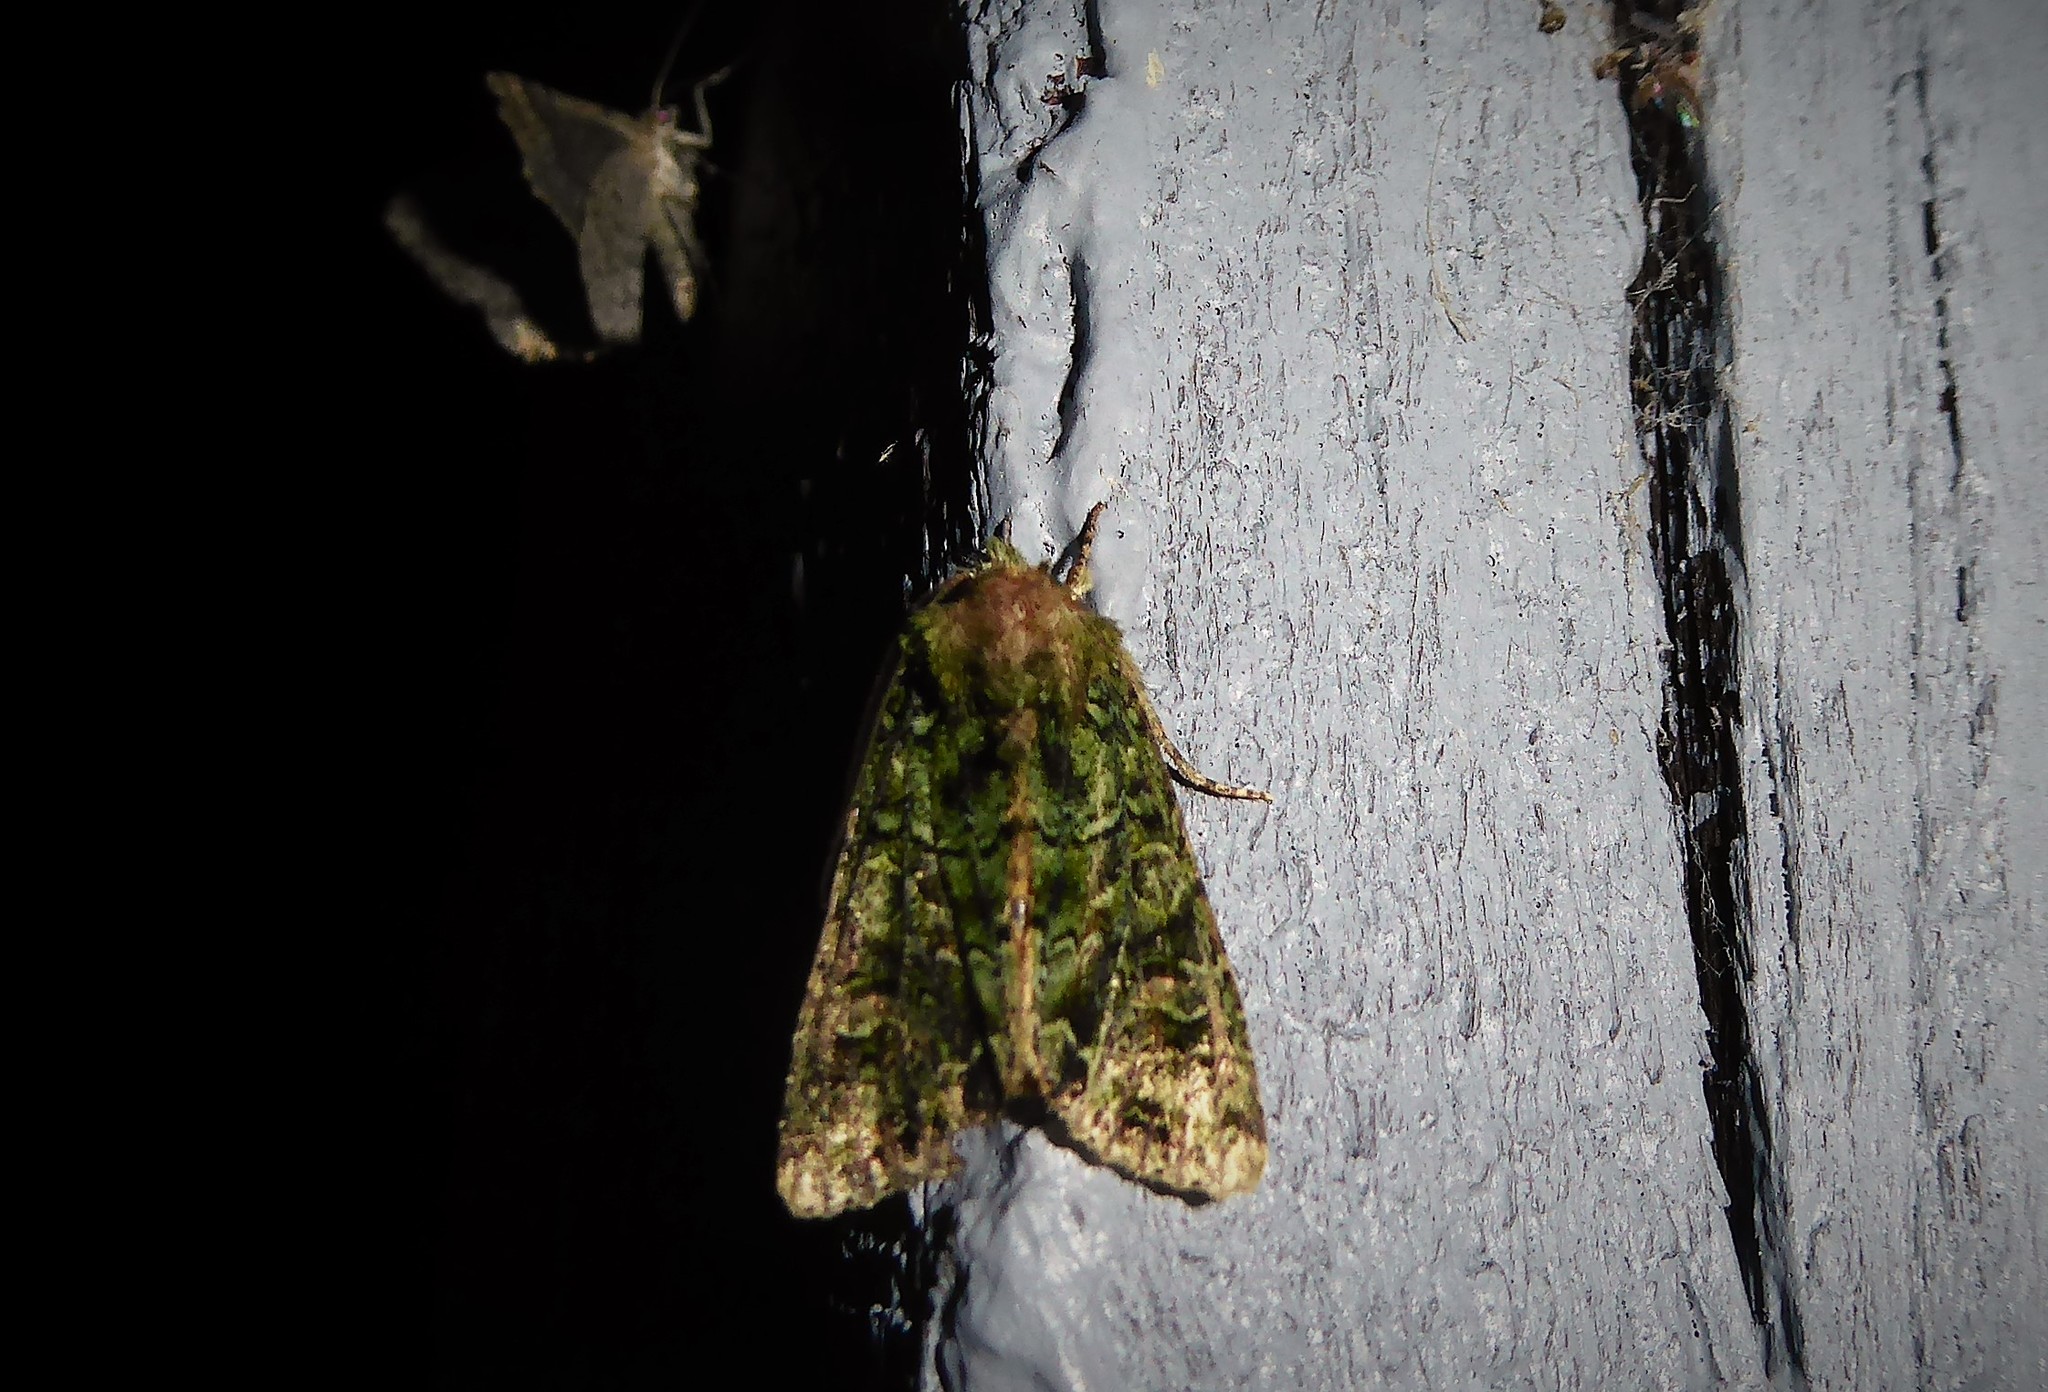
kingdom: Animalia
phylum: Arthropoda
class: Insecta
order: Lepidoptera
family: Noctuidae
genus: Ichneutica
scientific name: Ichneutica
